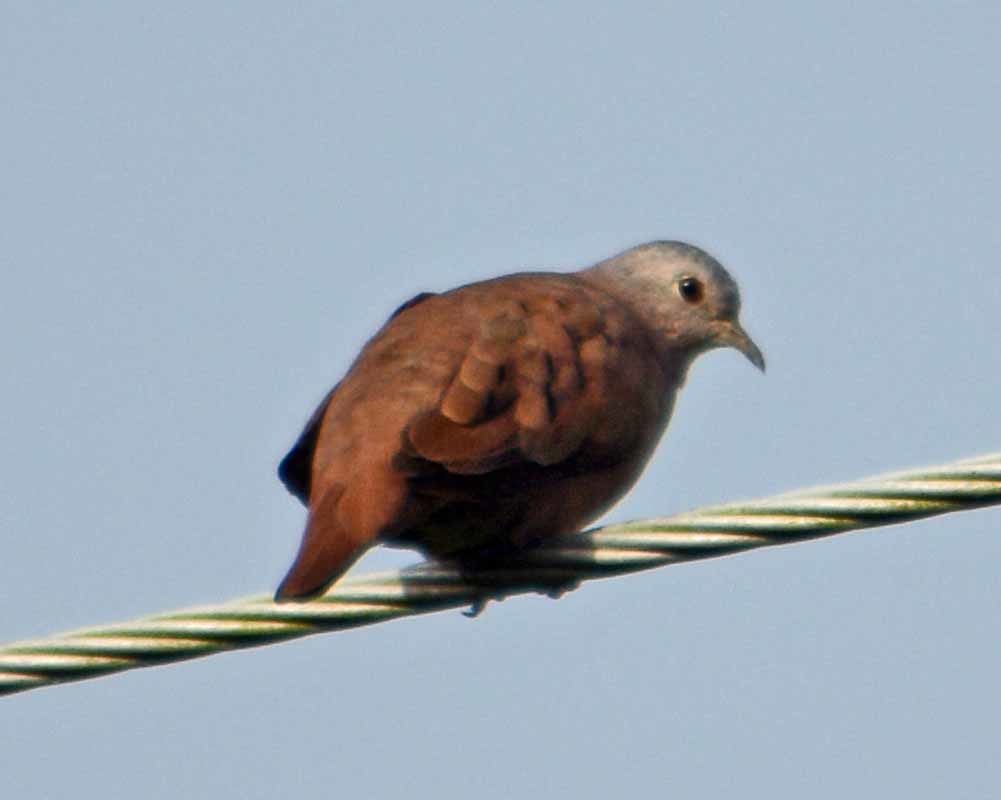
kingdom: Animalia
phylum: Chordata
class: Aves
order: Columbiformes
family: Columbidae
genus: Columbina
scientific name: Columbina talpacoti
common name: Ruddy ground dove
